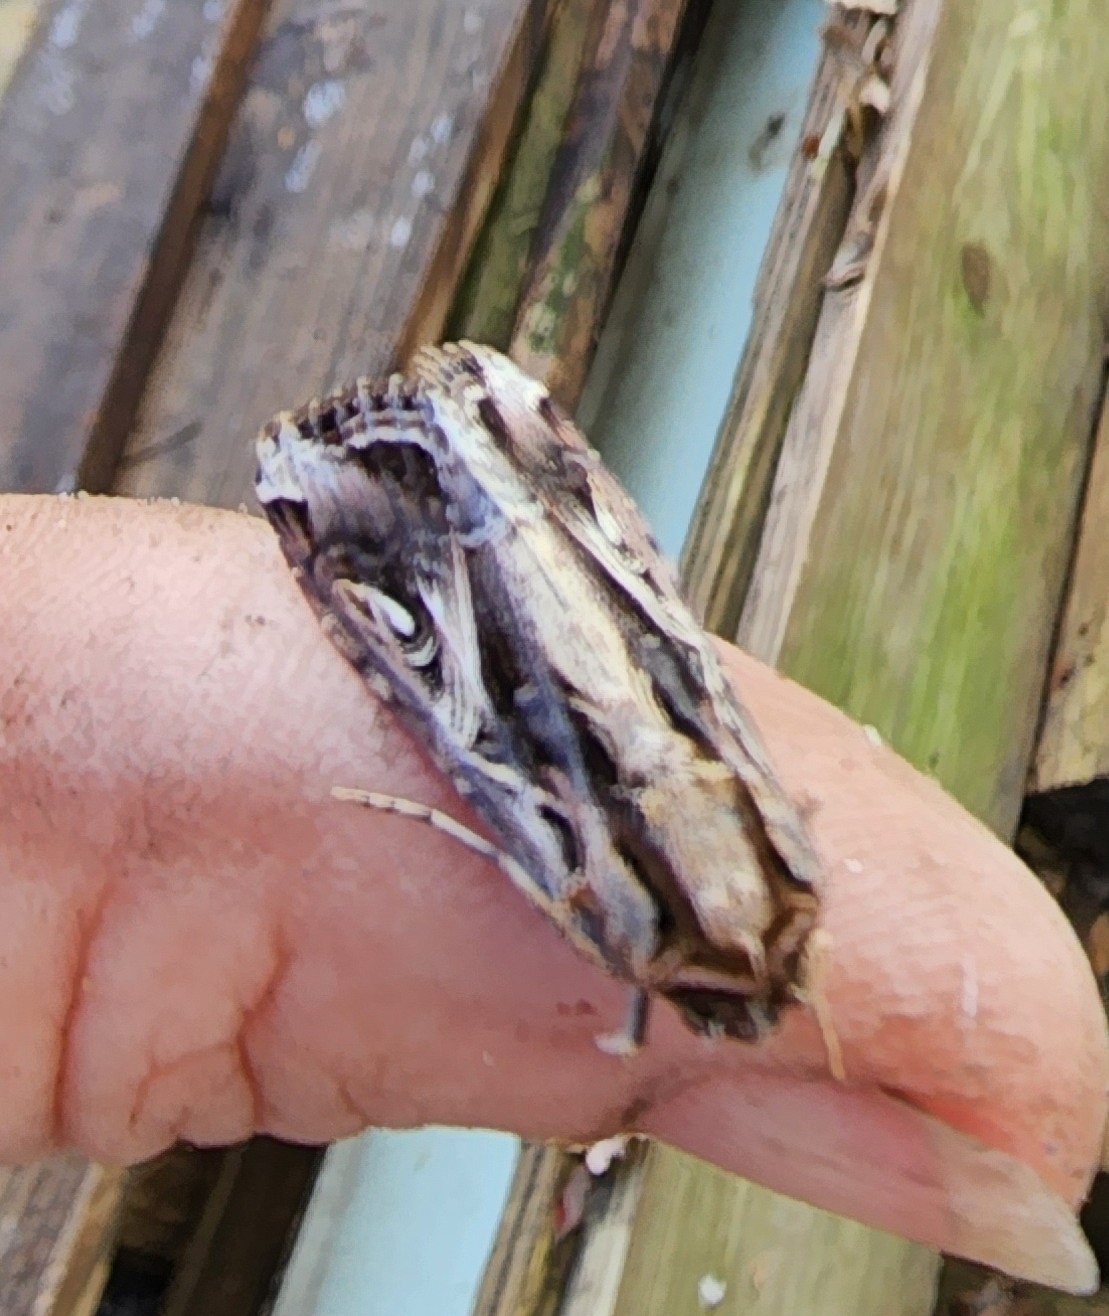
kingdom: Animalia
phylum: Arthropoda
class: Insecta
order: Lepidoptera
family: Noctuidae
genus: Spodoptera
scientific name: Spodoptera dolichos
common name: Sweetpotato armyworm
